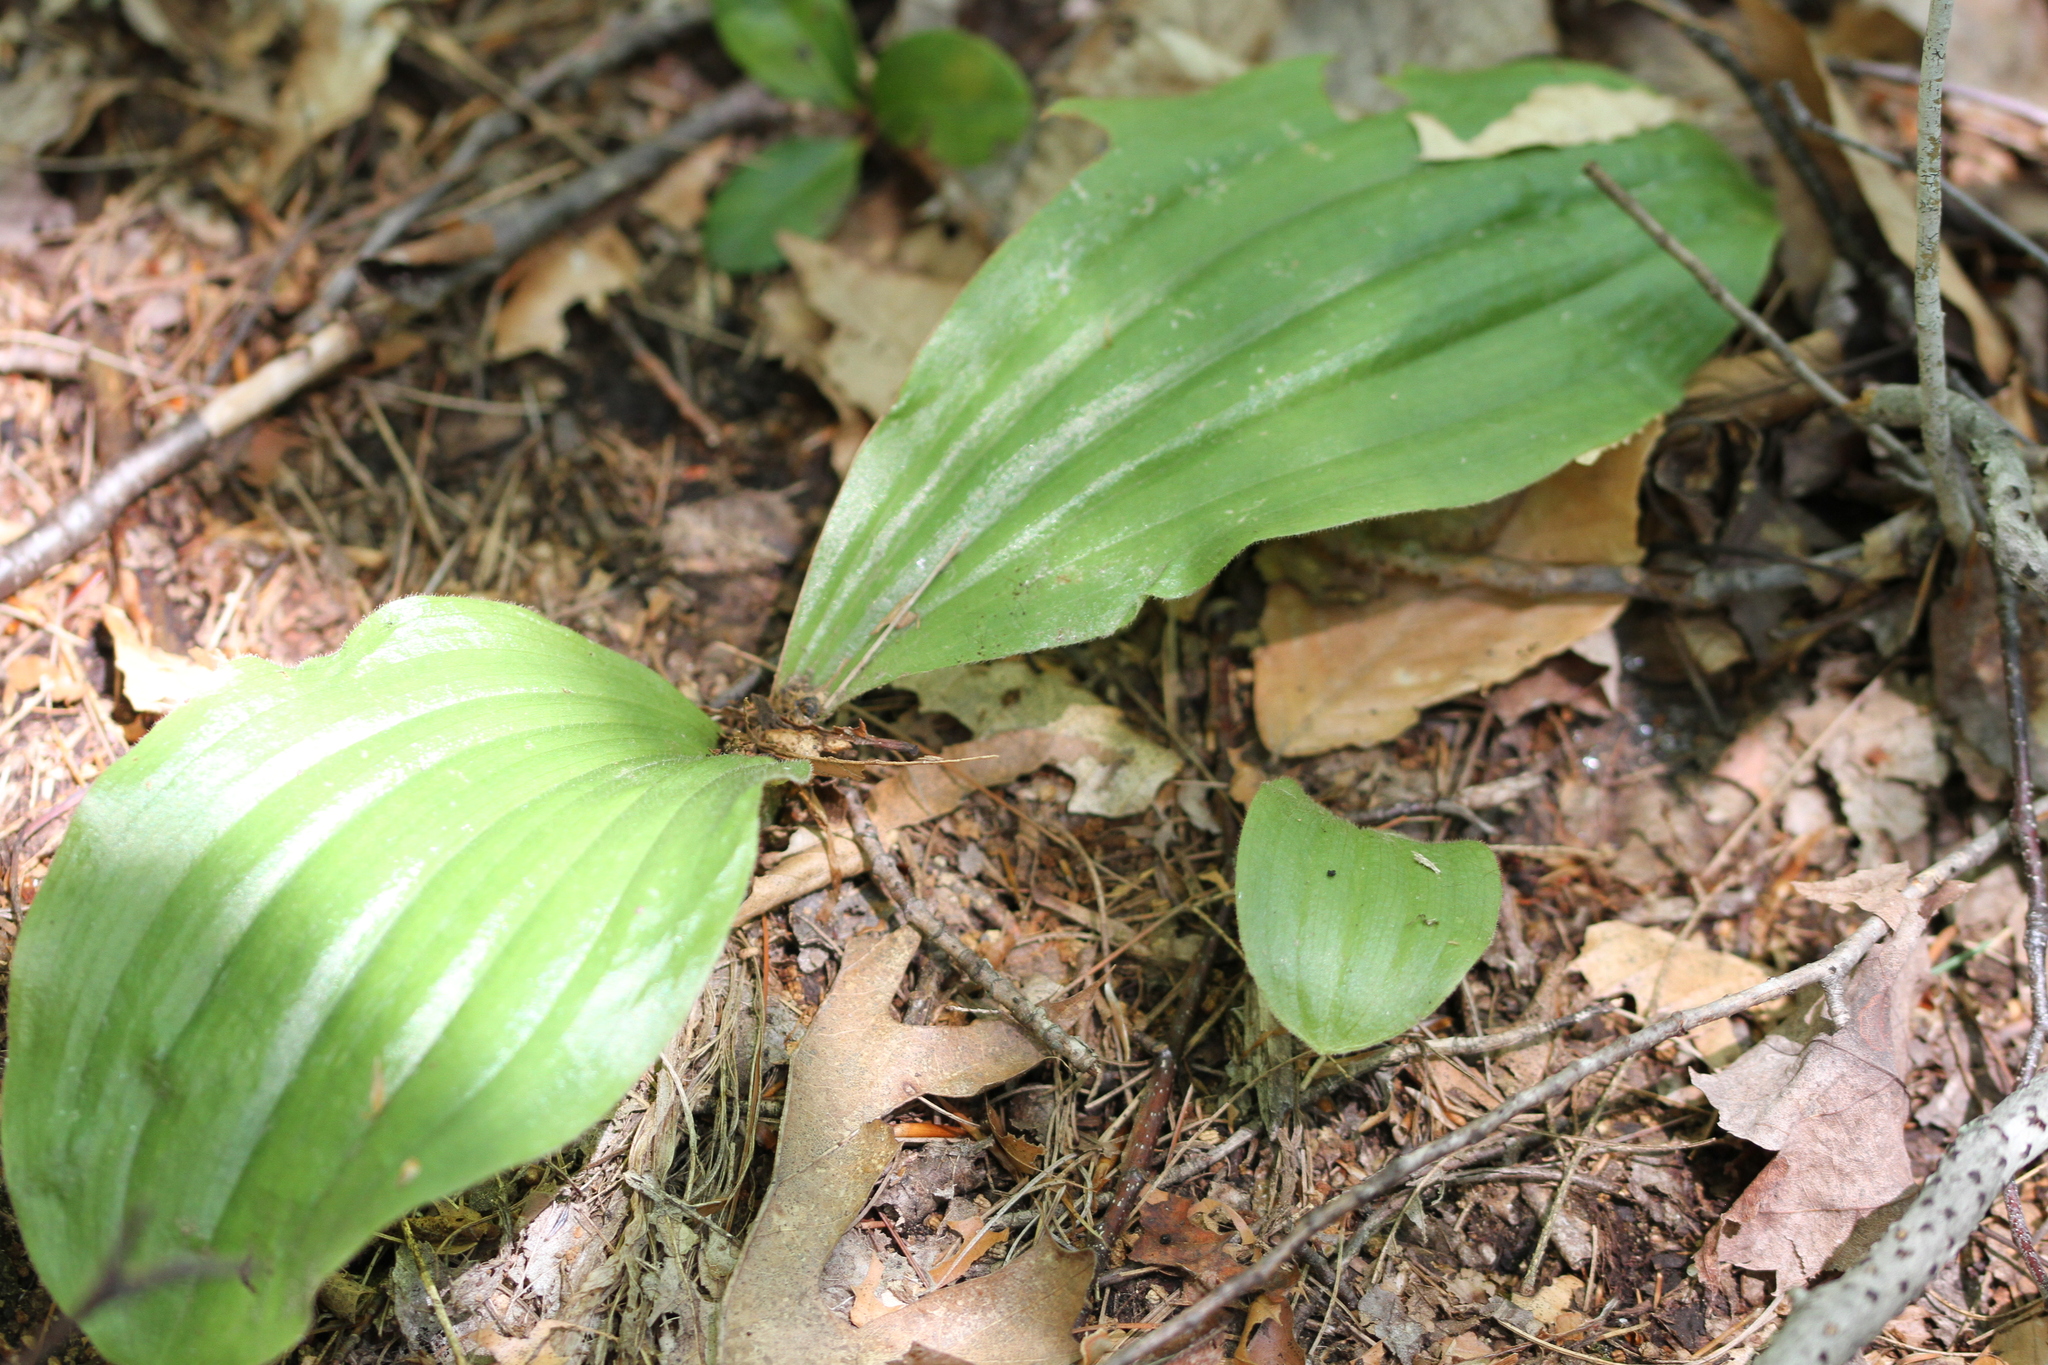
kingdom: Plantae
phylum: Tracheophyta
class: Liliopsida
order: Asparagales
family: Orchidaceae
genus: Cypripedium
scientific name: Cypripedium acaule
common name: Pink lady's-slipper
